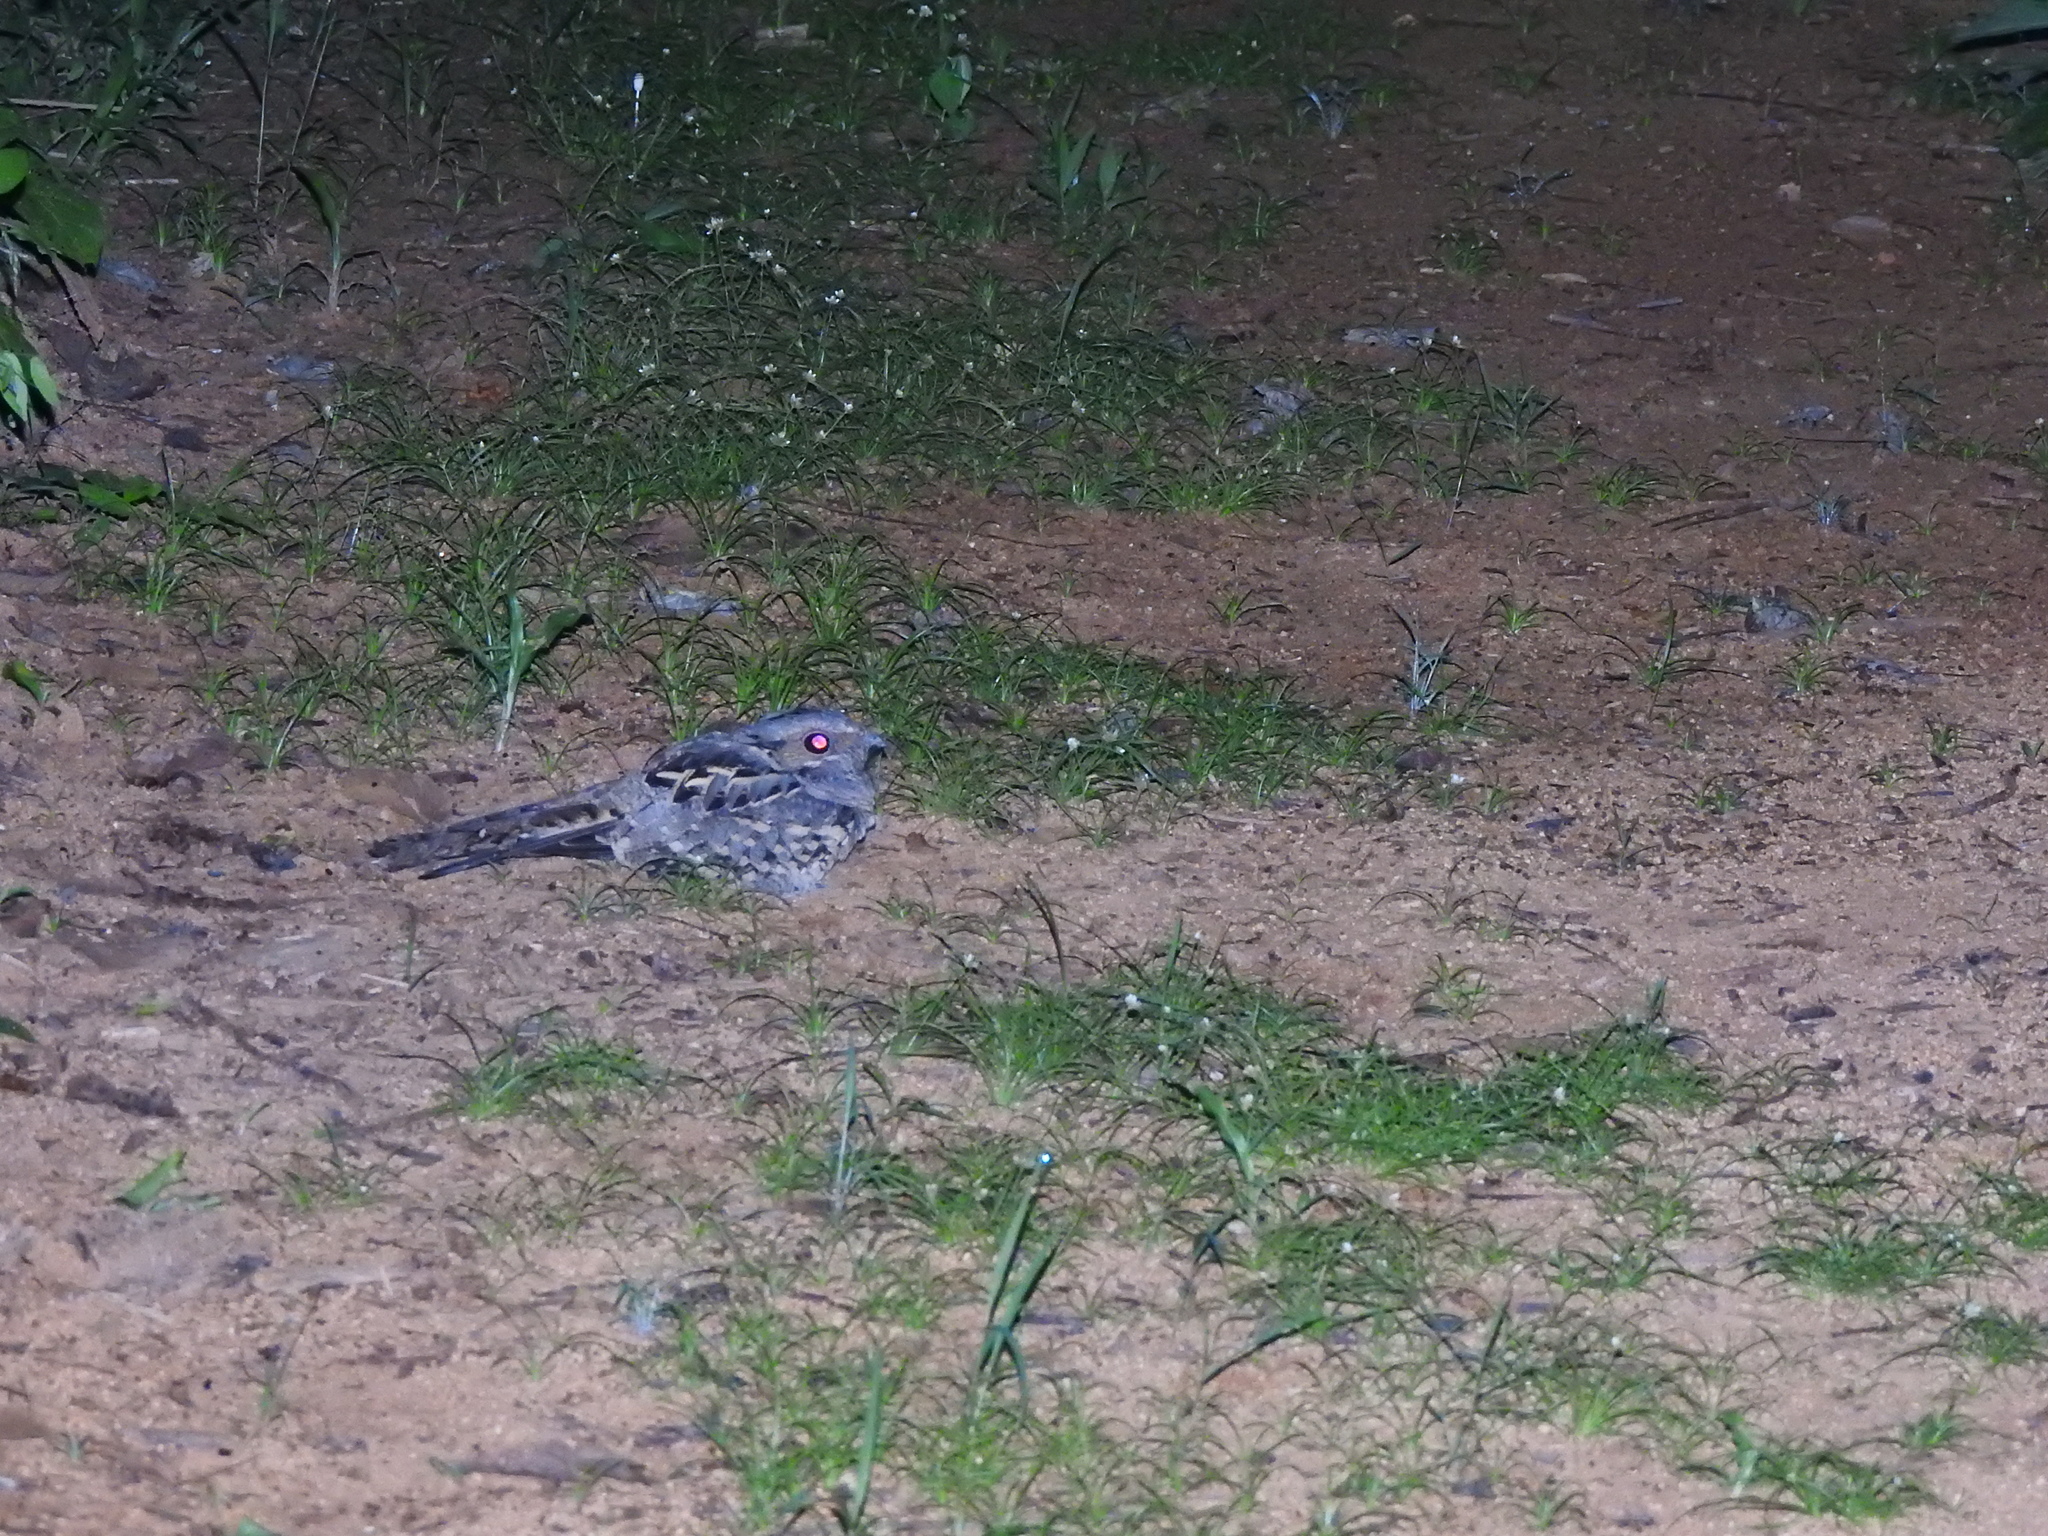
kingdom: Animalia
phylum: Chordata
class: Aves
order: Caprimulgiformes
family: Caprimulgidae
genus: Nyctidromus
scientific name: Nyctidromus albicollis
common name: Pauraque
